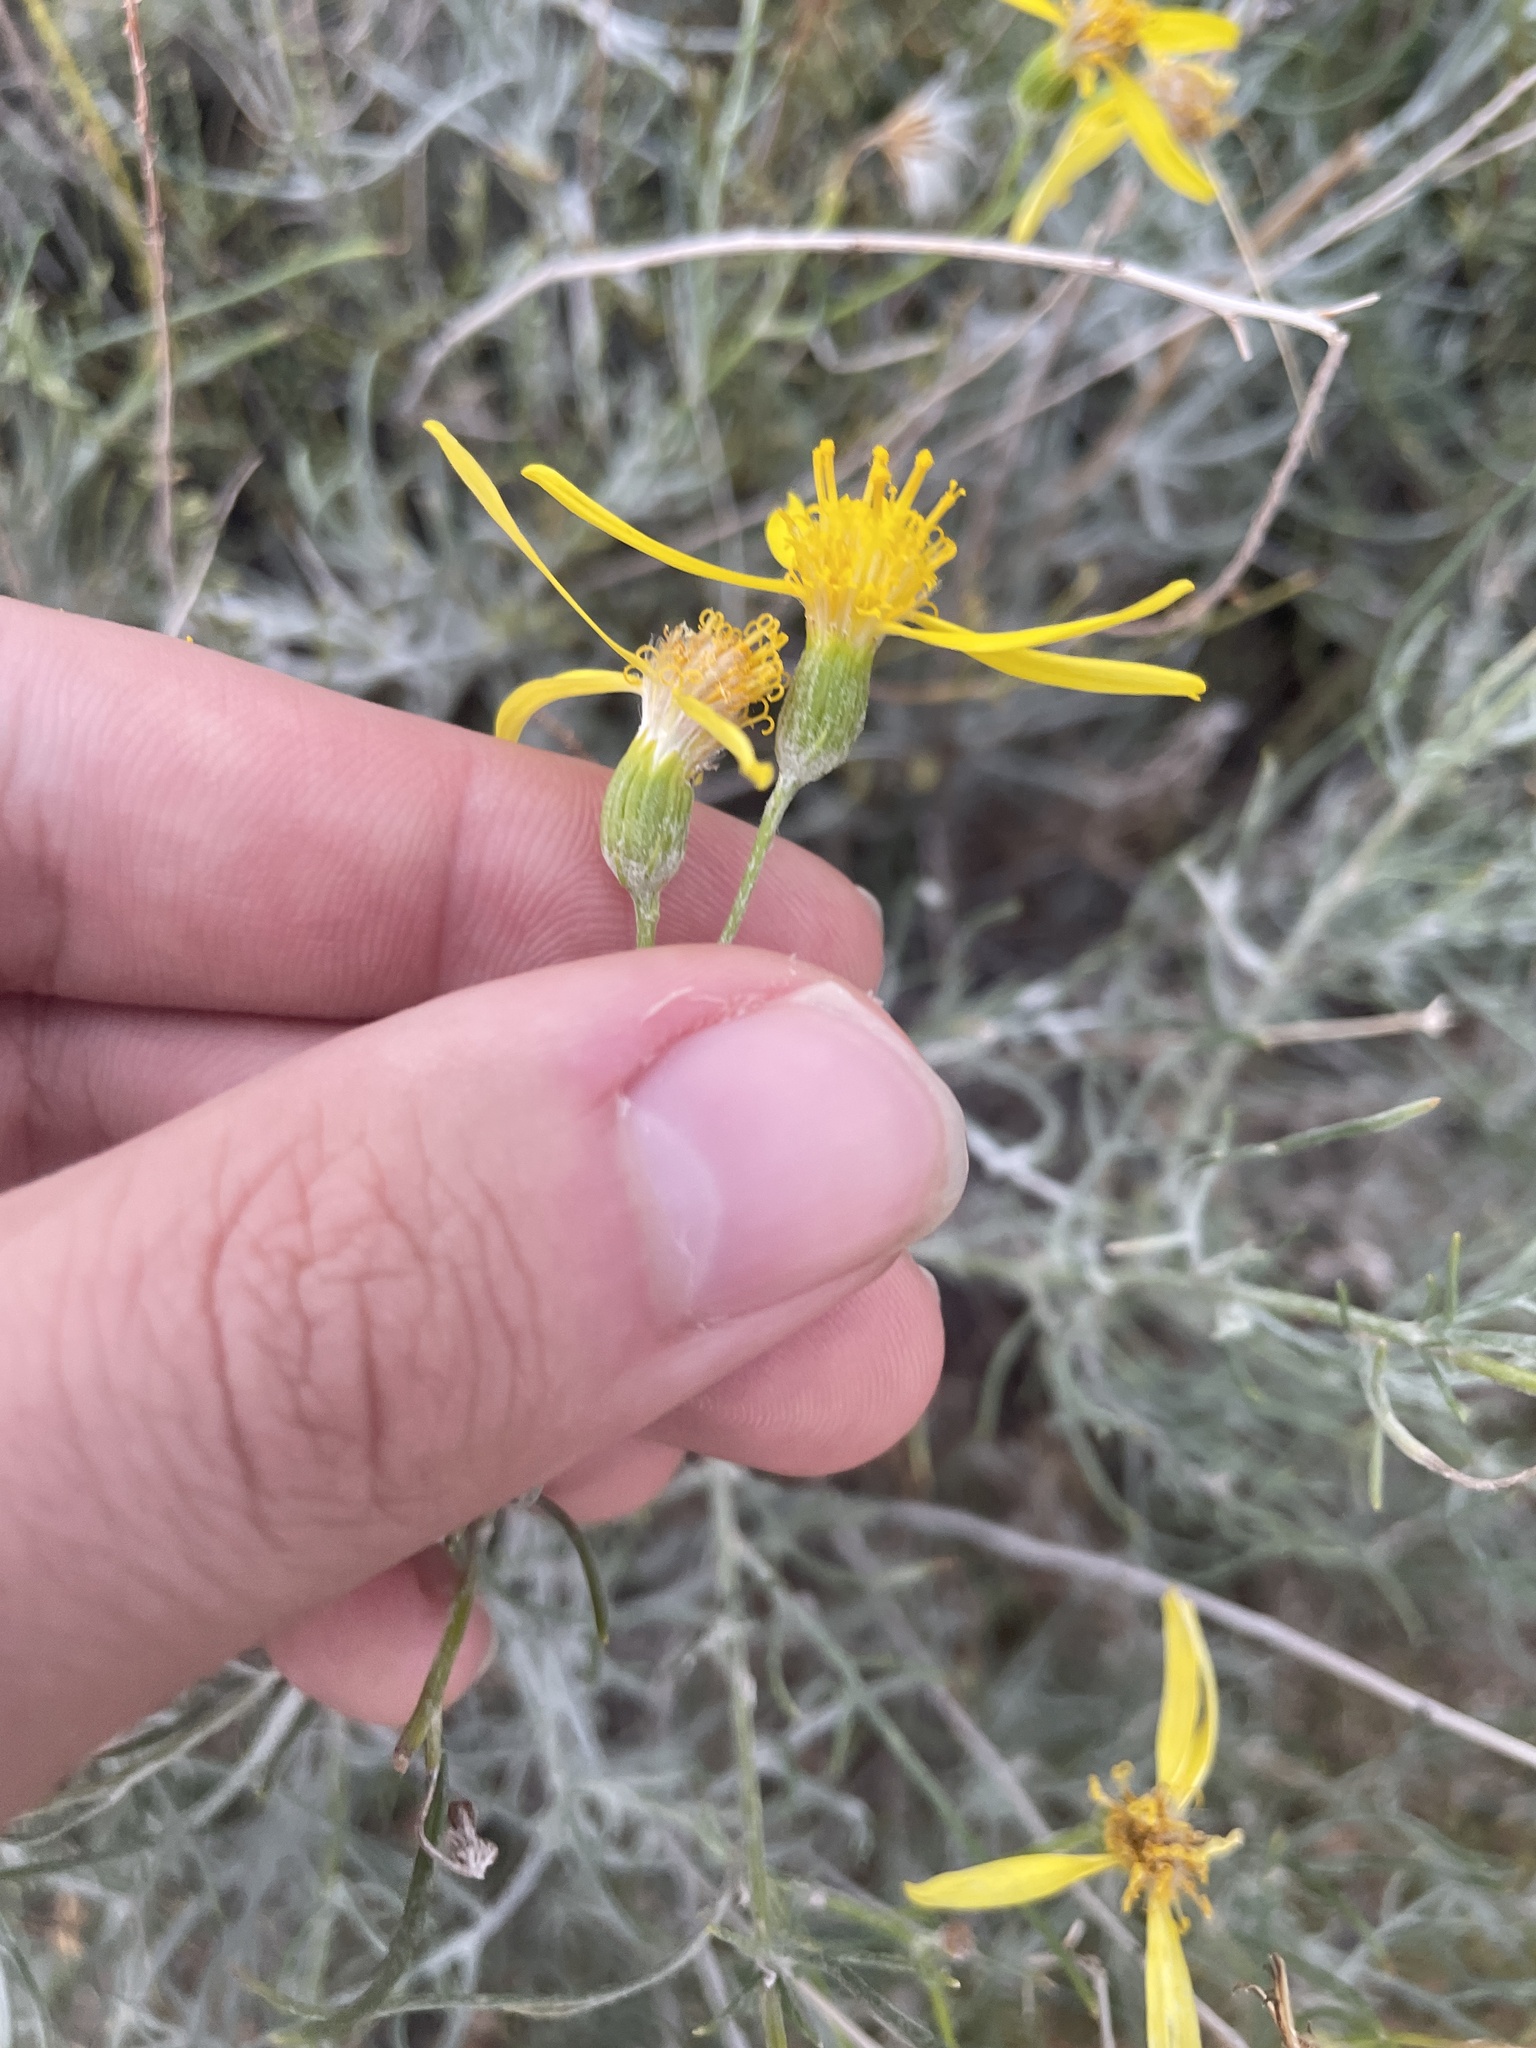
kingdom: Plantae
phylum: Tracheophyta
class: Magnoliopsida
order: Asterales
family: Asteraceae
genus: Senecio
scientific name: Senecio flaccidus
